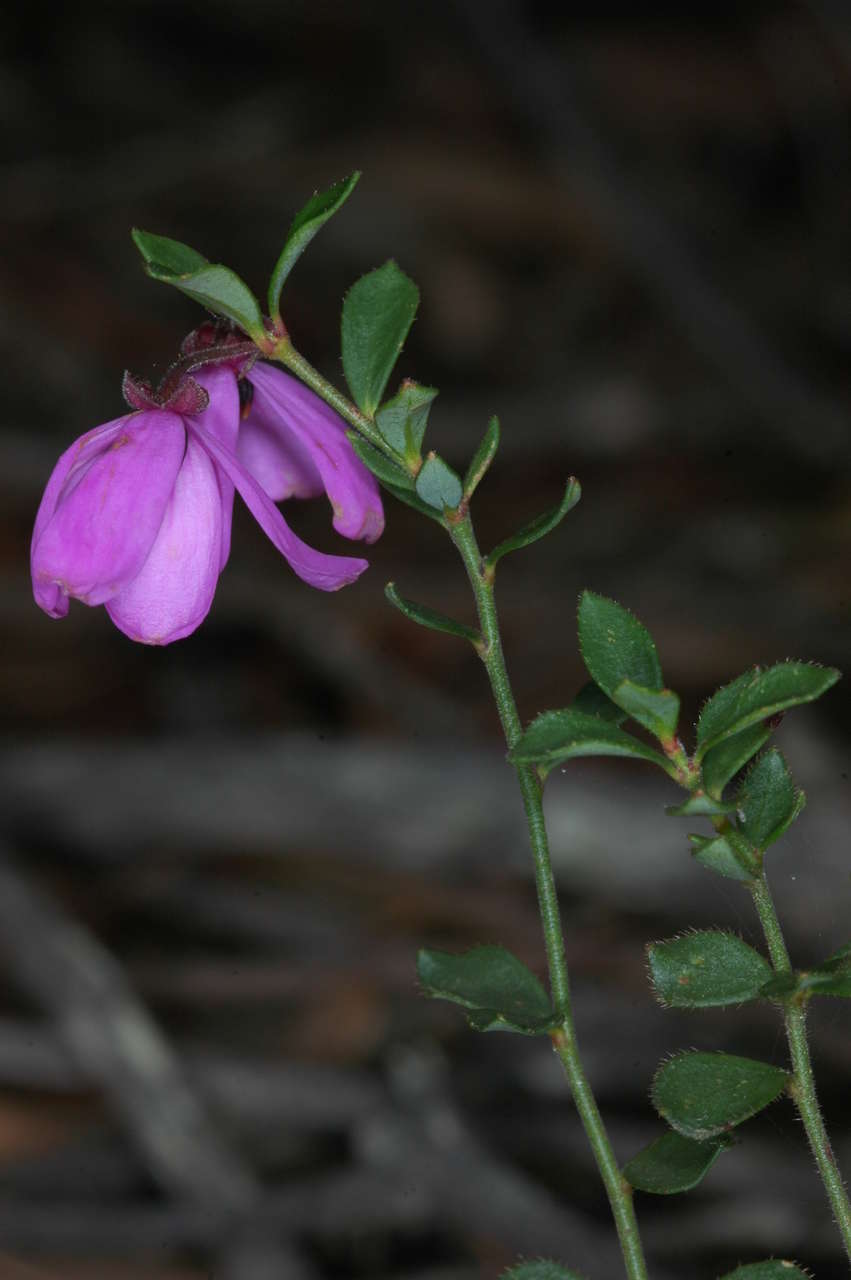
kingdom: Plantae
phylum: Tracheophyta
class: Magnoliopsida
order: Oxalidales
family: Elaeocarpaceae
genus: Tetratheca
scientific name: Tetratheca ciliata
